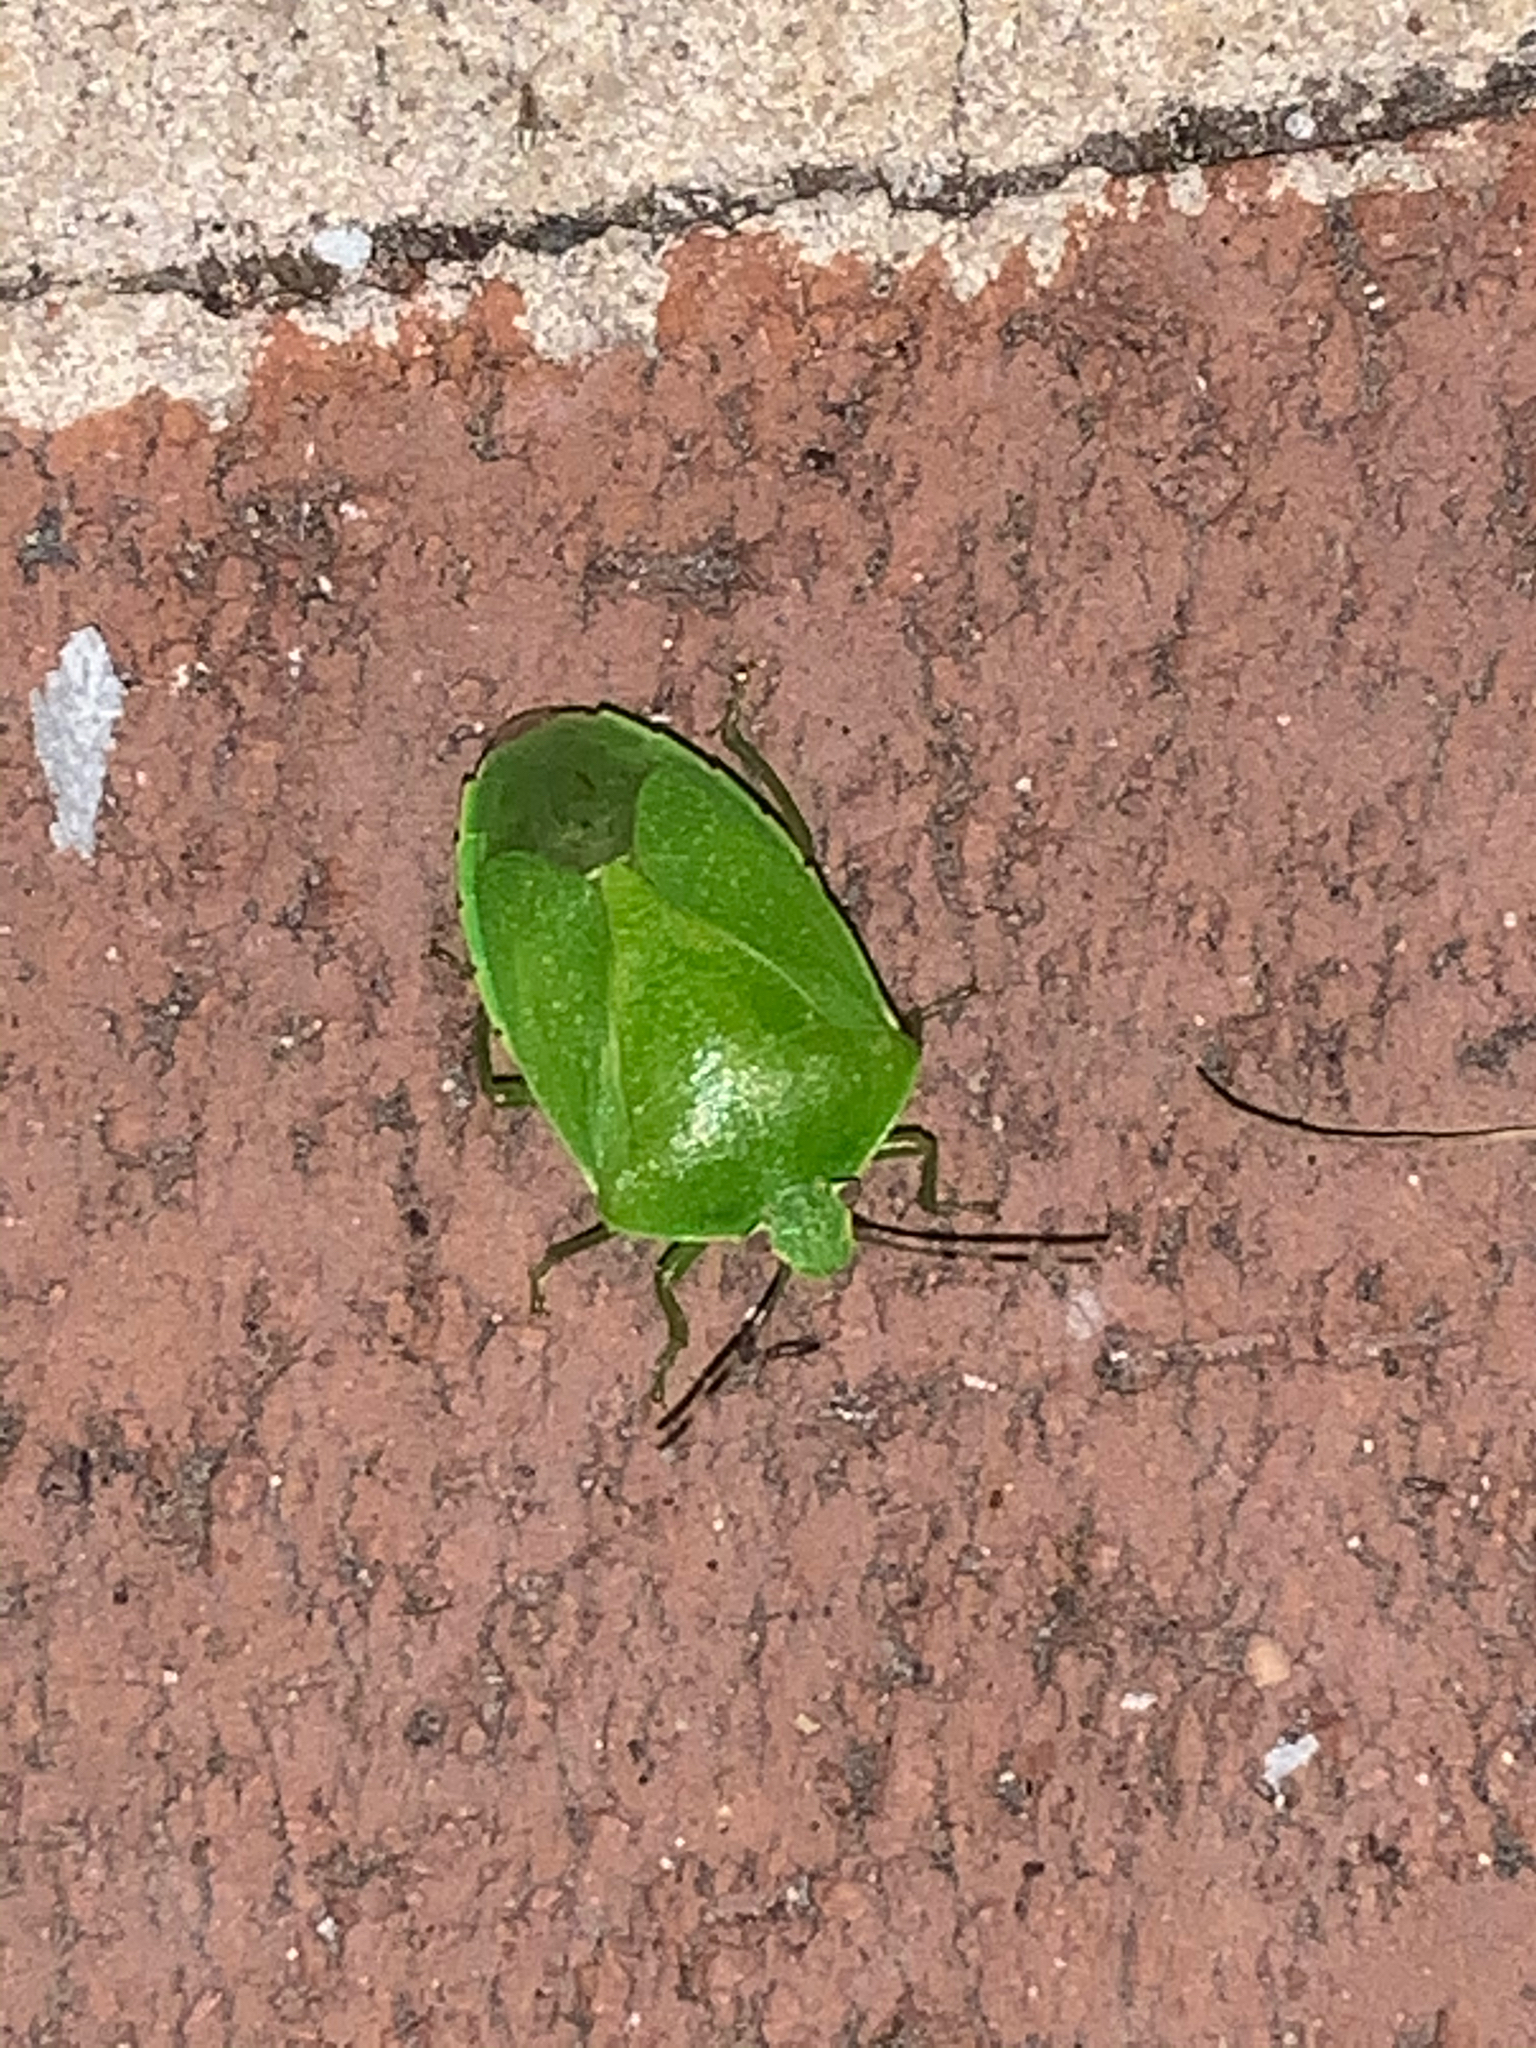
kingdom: Animalia
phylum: Arthropoda
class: Insecta
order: Hemiptera
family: Pentatomidae
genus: Chinavia
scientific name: Chinavia hilaris
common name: Green stink bug
